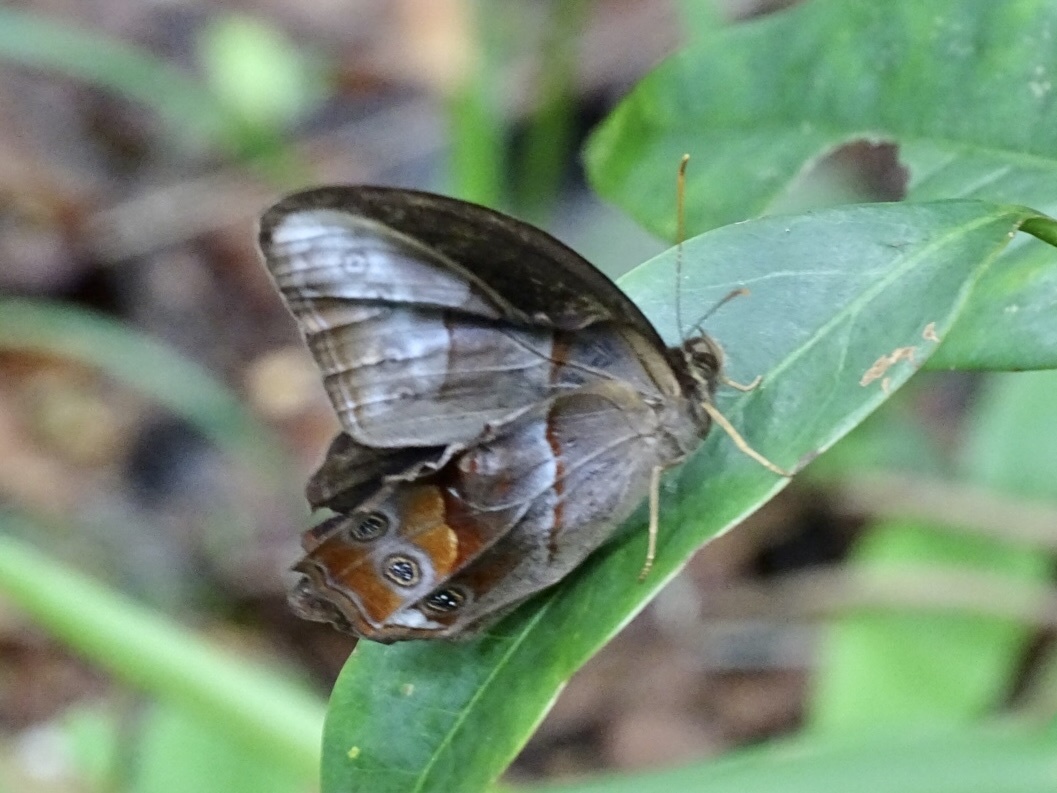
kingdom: Animalia
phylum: Arthropoda
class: Insecta
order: Lepidoptera
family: Nymphalidae
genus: Lethe
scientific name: Lethe chandica
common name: Angled red forester
